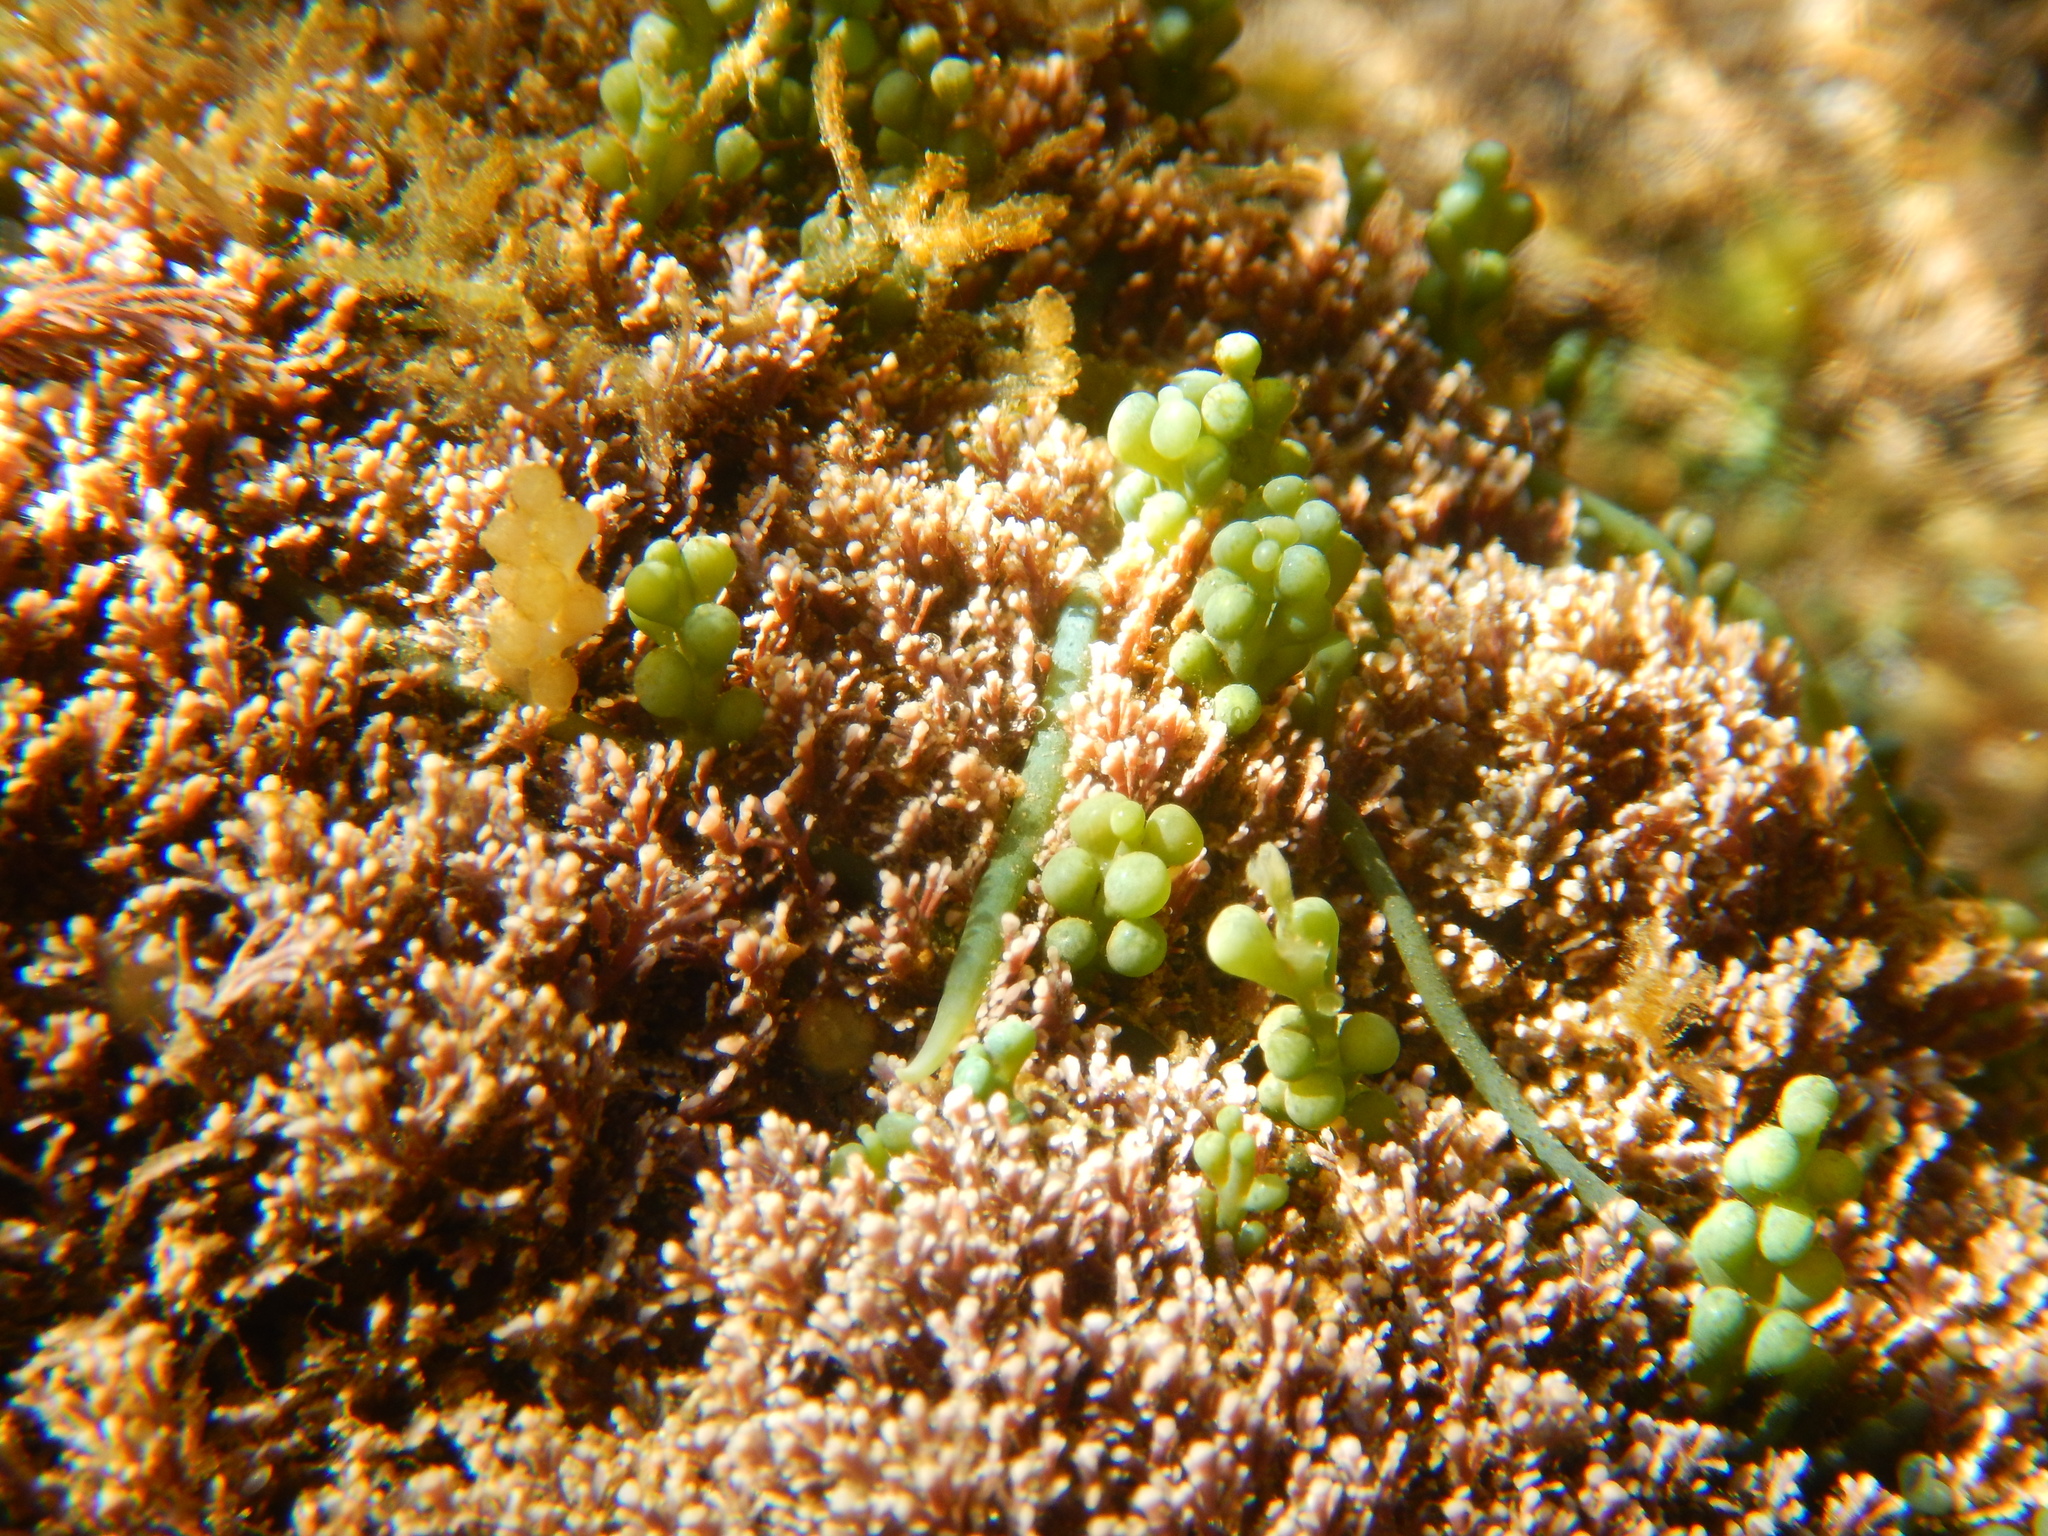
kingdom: Plantae
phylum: Chlorophyta
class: Ulvophyceae
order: Bryopsidales
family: Caulerpaceae
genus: Caulerpa
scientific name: Caulerpa cylindracea
